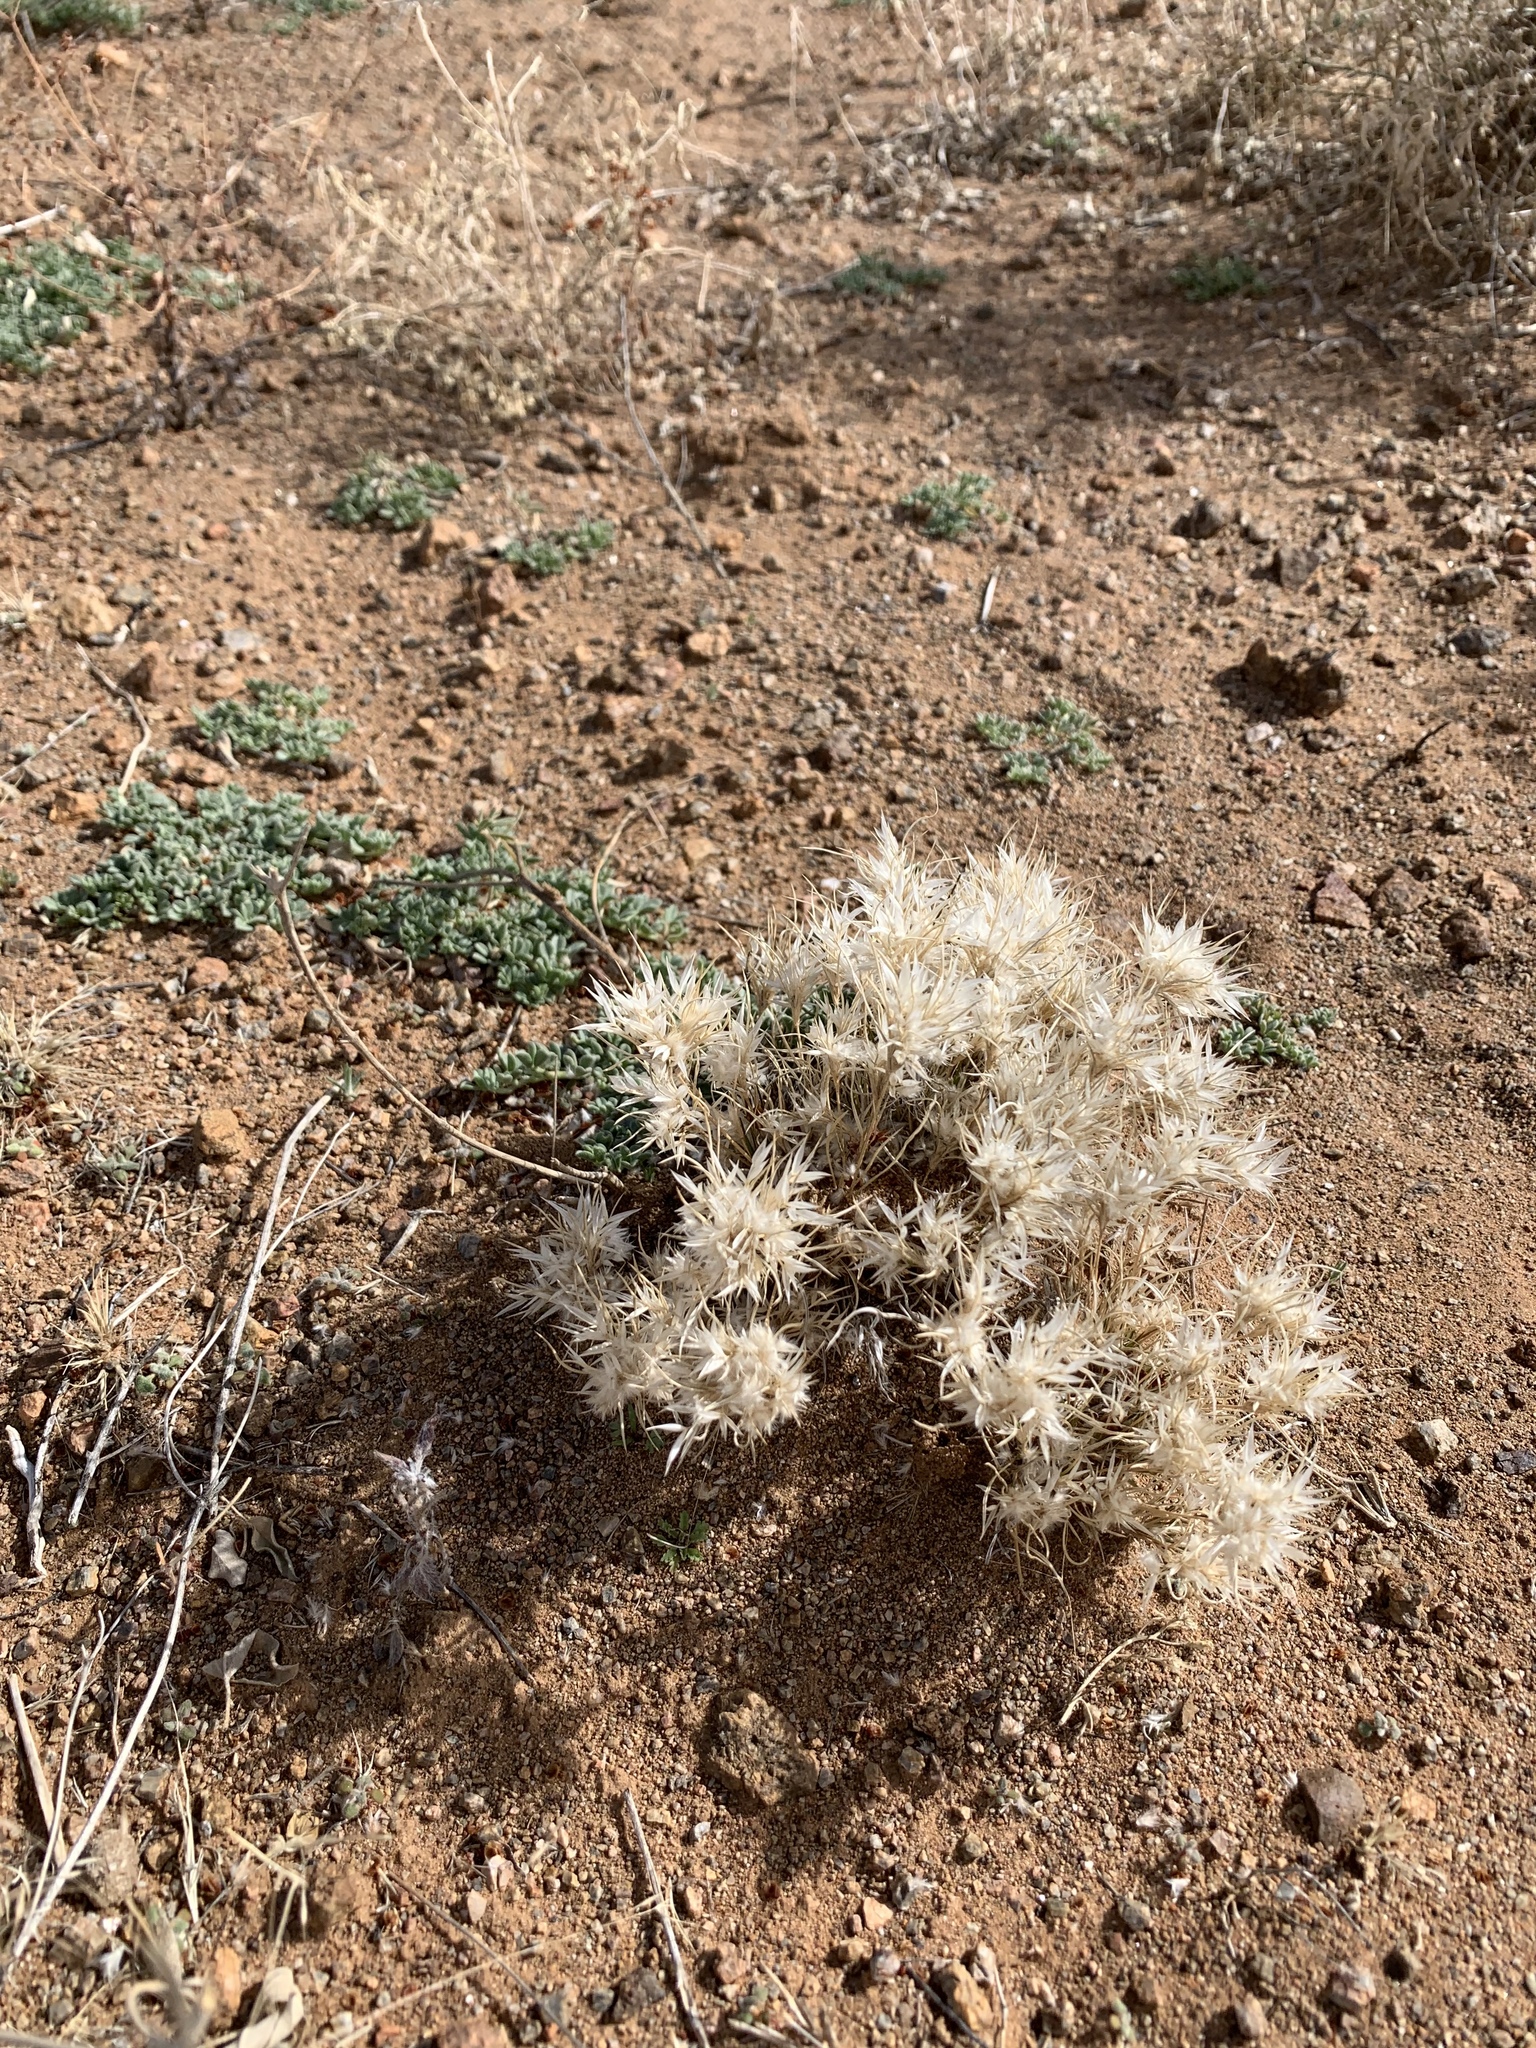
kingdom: Plantae
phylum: Tracheophyta
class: Liliopsida
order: Poales
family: Poaceae
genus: Dasyochloa
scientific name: Dasyochloa pulchella
